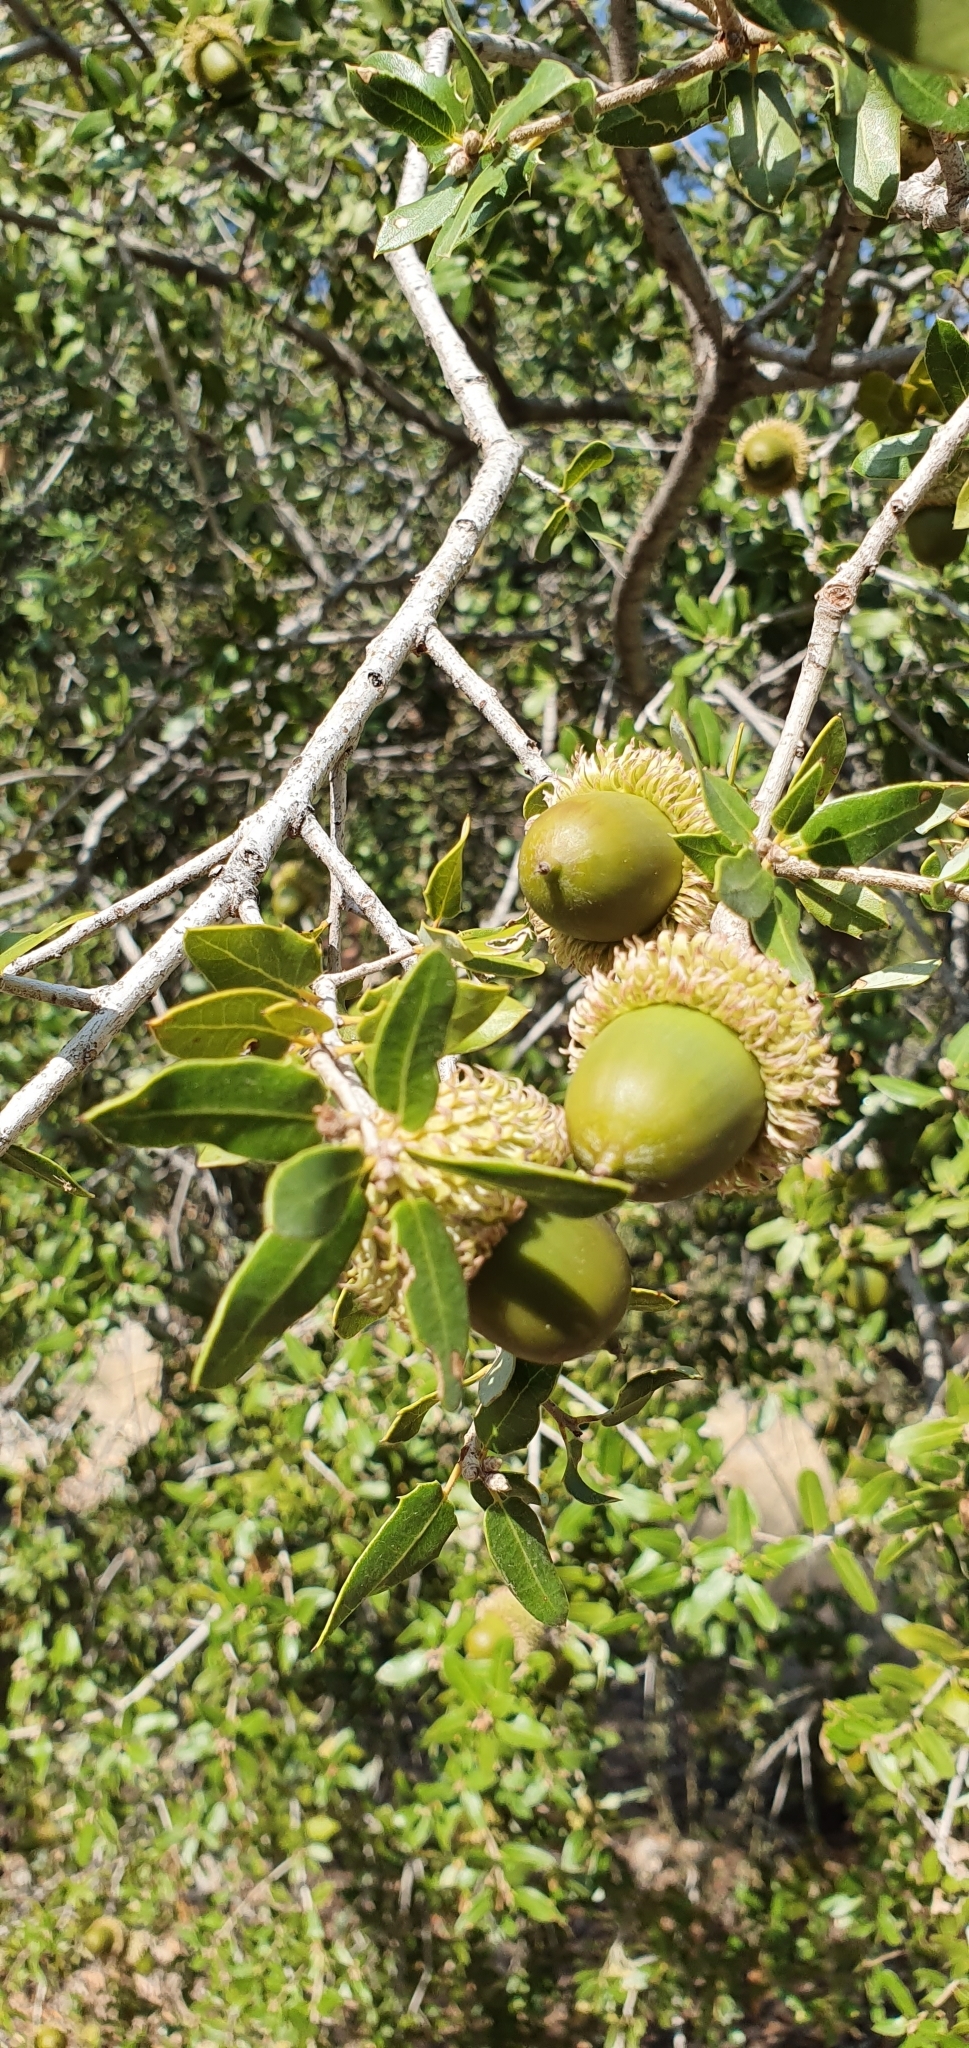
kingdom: Plantae
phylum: Tracheophyta
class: Magnoliopsida
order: Fagales
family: Fagaceae
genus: Quercus
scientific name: Quercus coccifera
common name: Kermes oak
